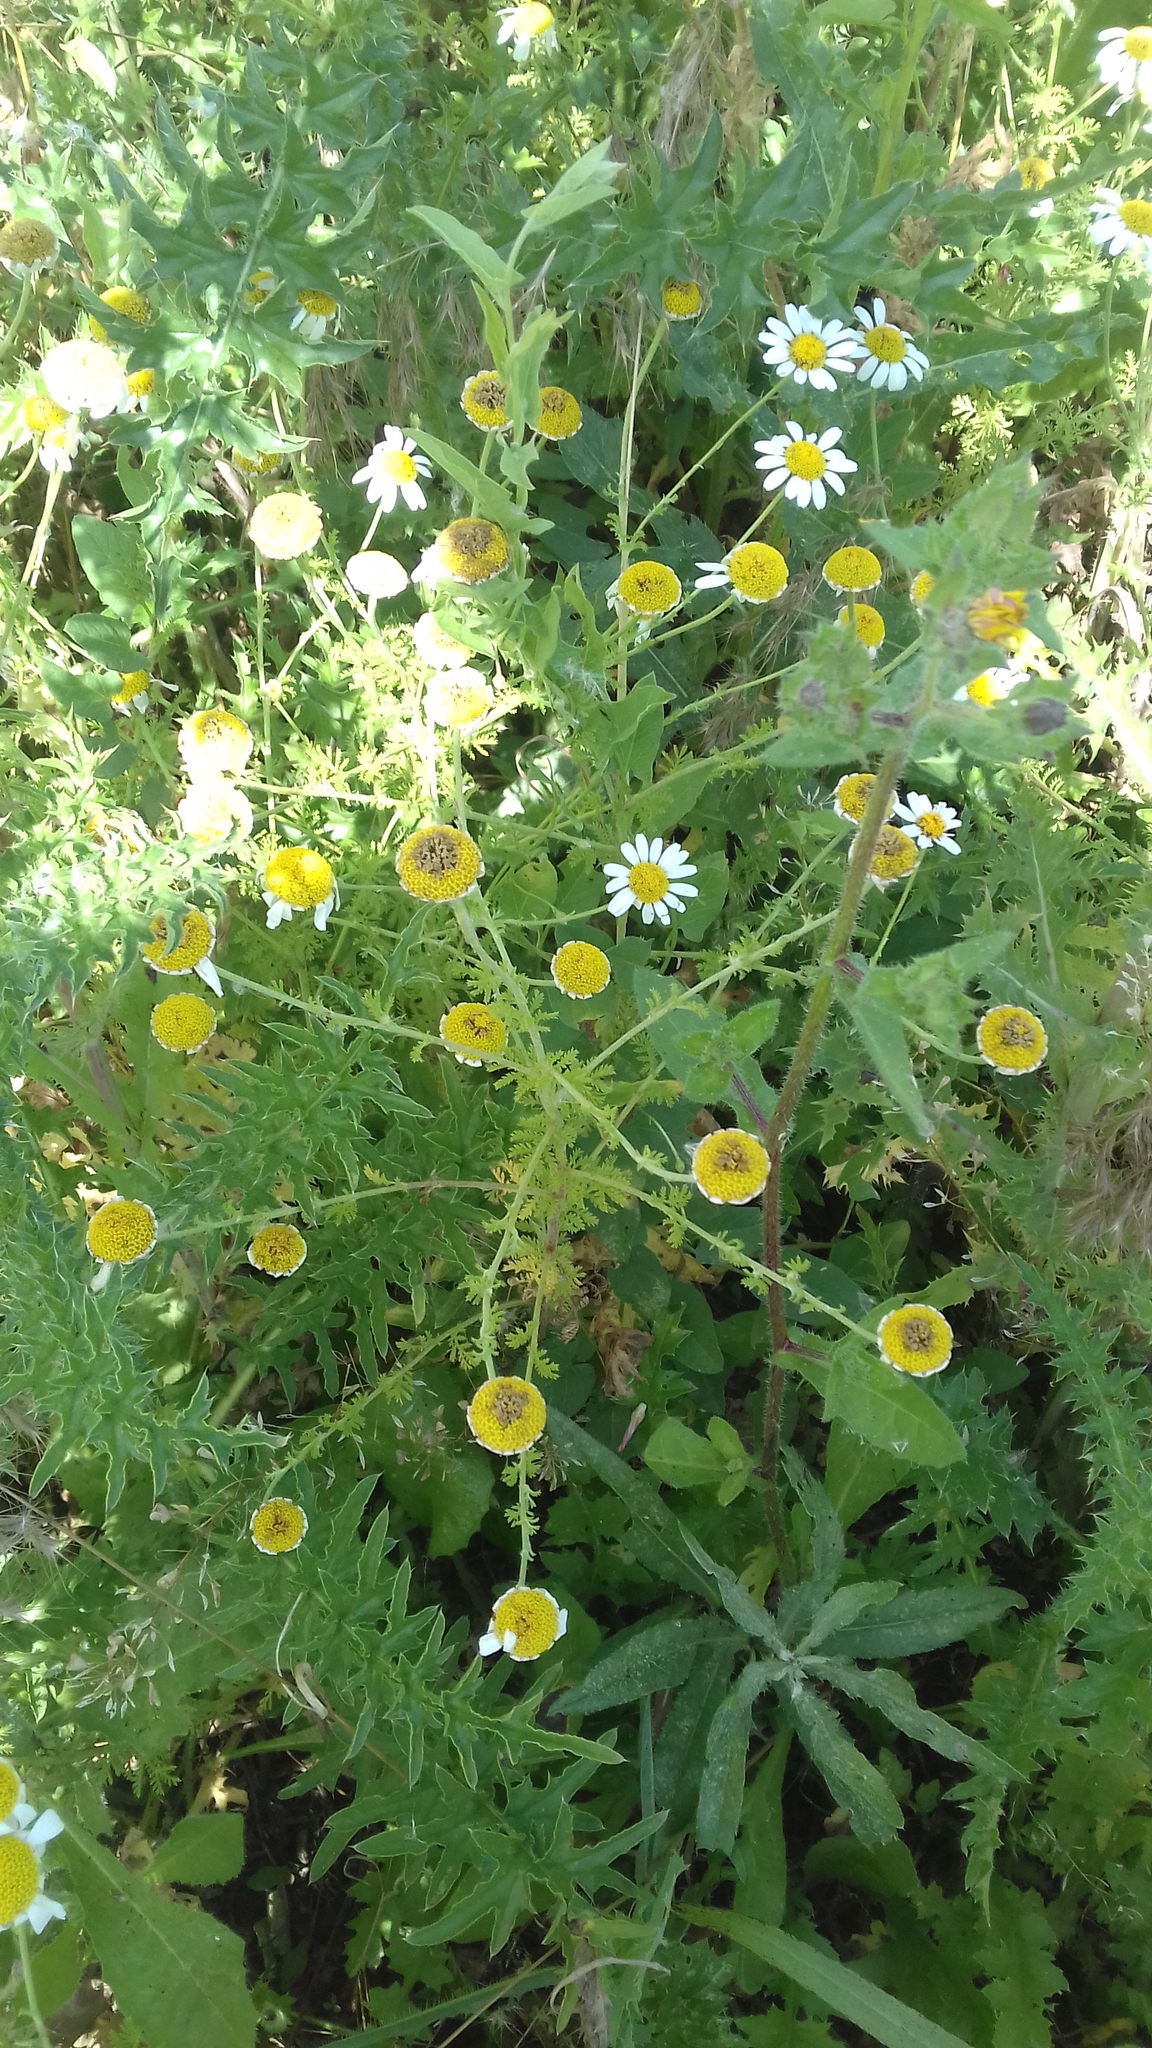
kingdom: Plantae
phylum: Tracheophyta
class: Magnoliopsida
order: Asterales
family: Asteraceae
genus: Cota
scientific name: Cota austriaca
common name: Austrian chamomile
